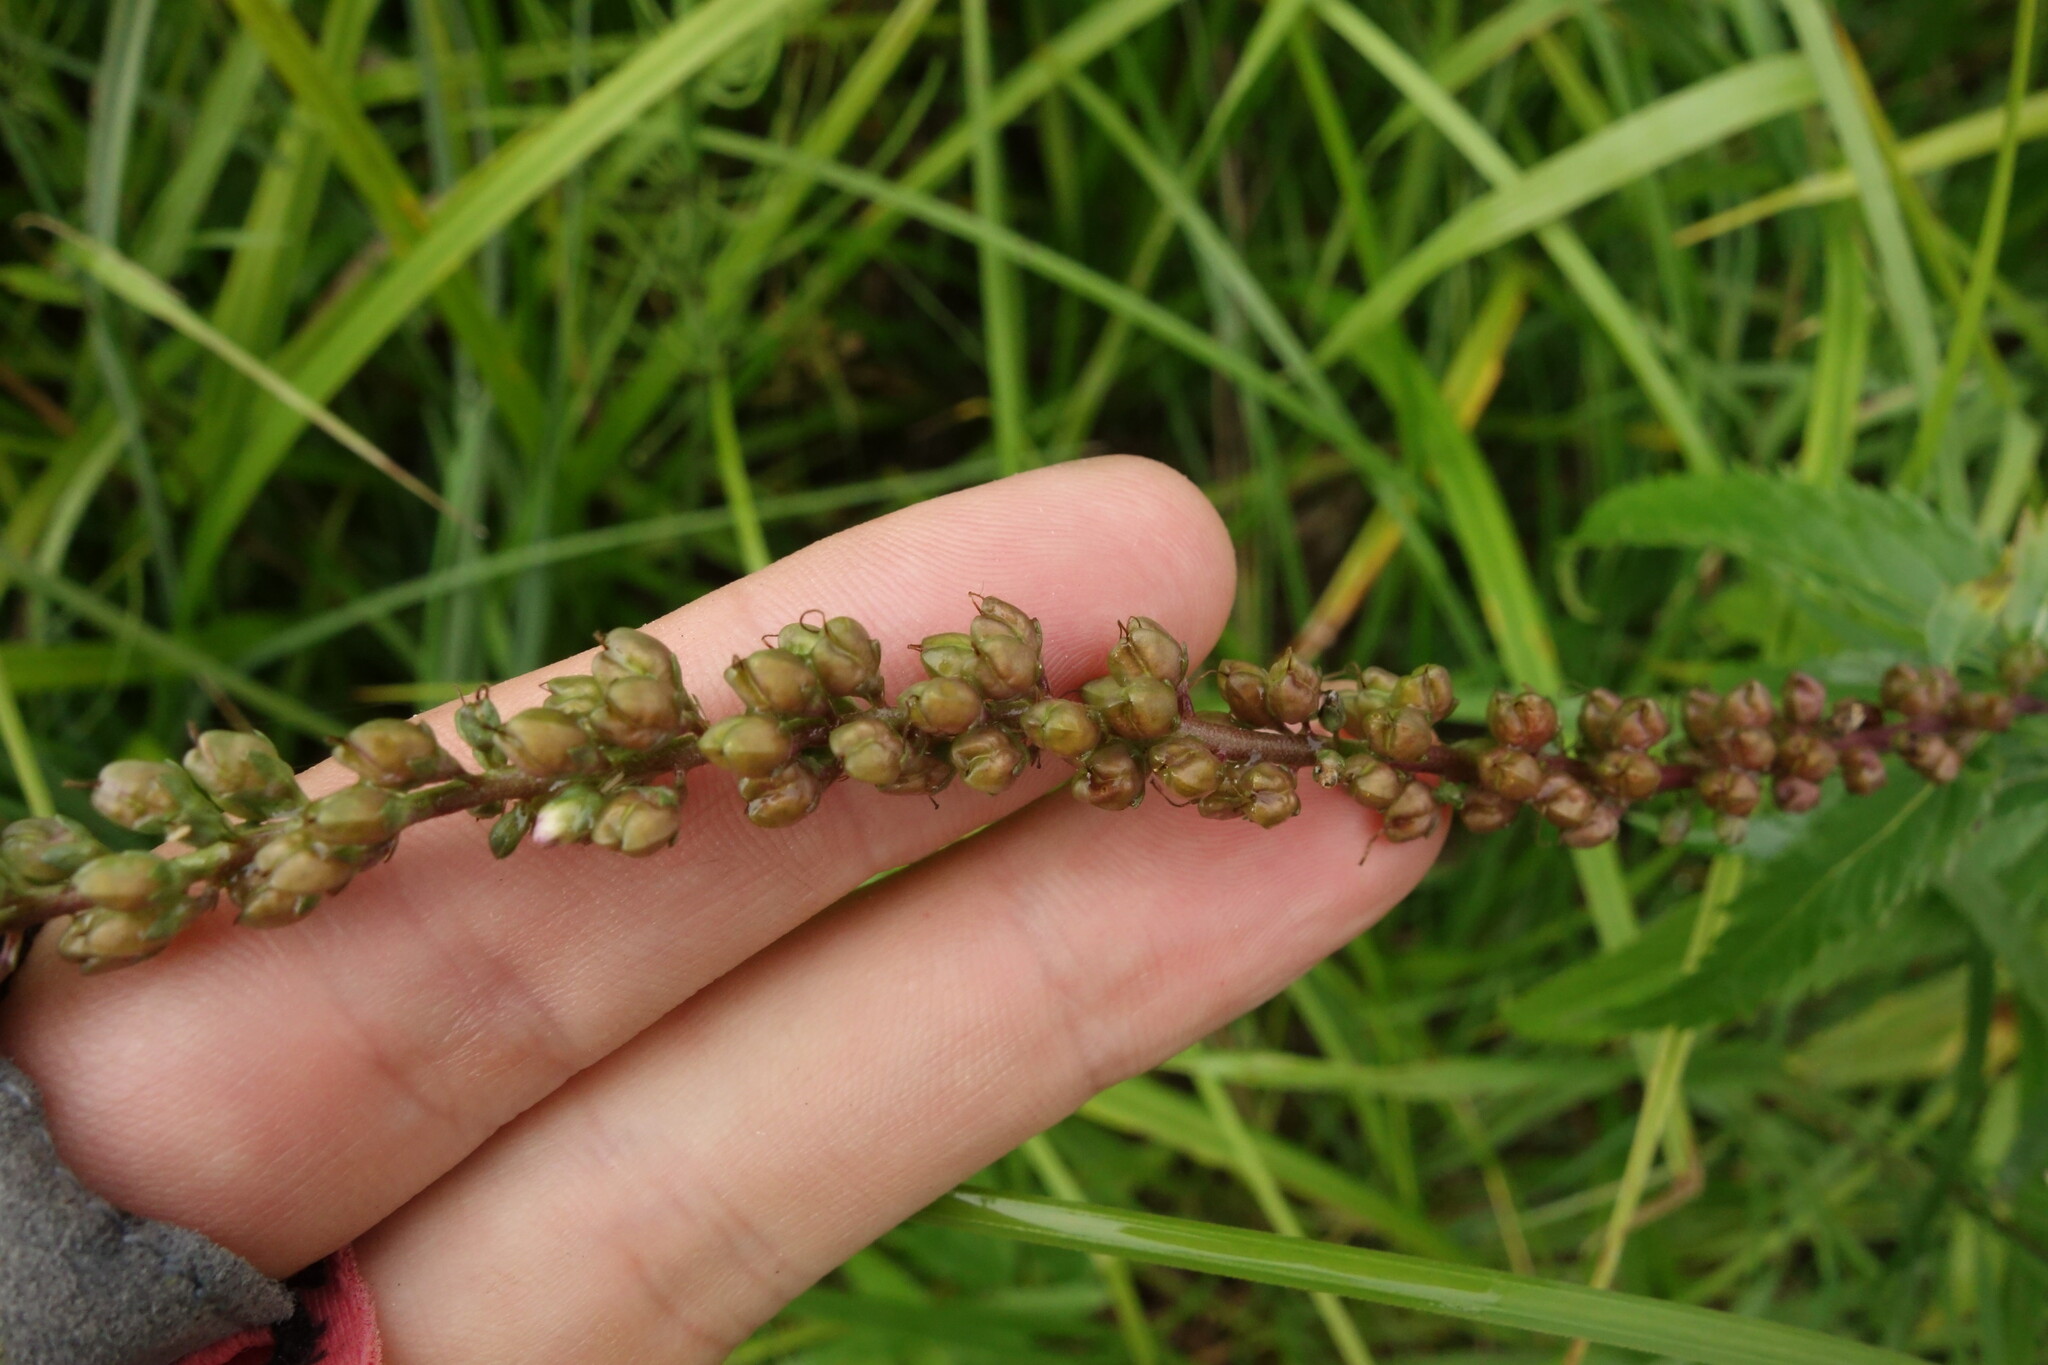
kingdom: Plantae
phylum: Tracheophyta
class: Magnoliopsida
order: Lamiales
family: Plantaginaceae
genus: Veronica
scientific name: Veronica longifolia
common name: Garden speedwell
